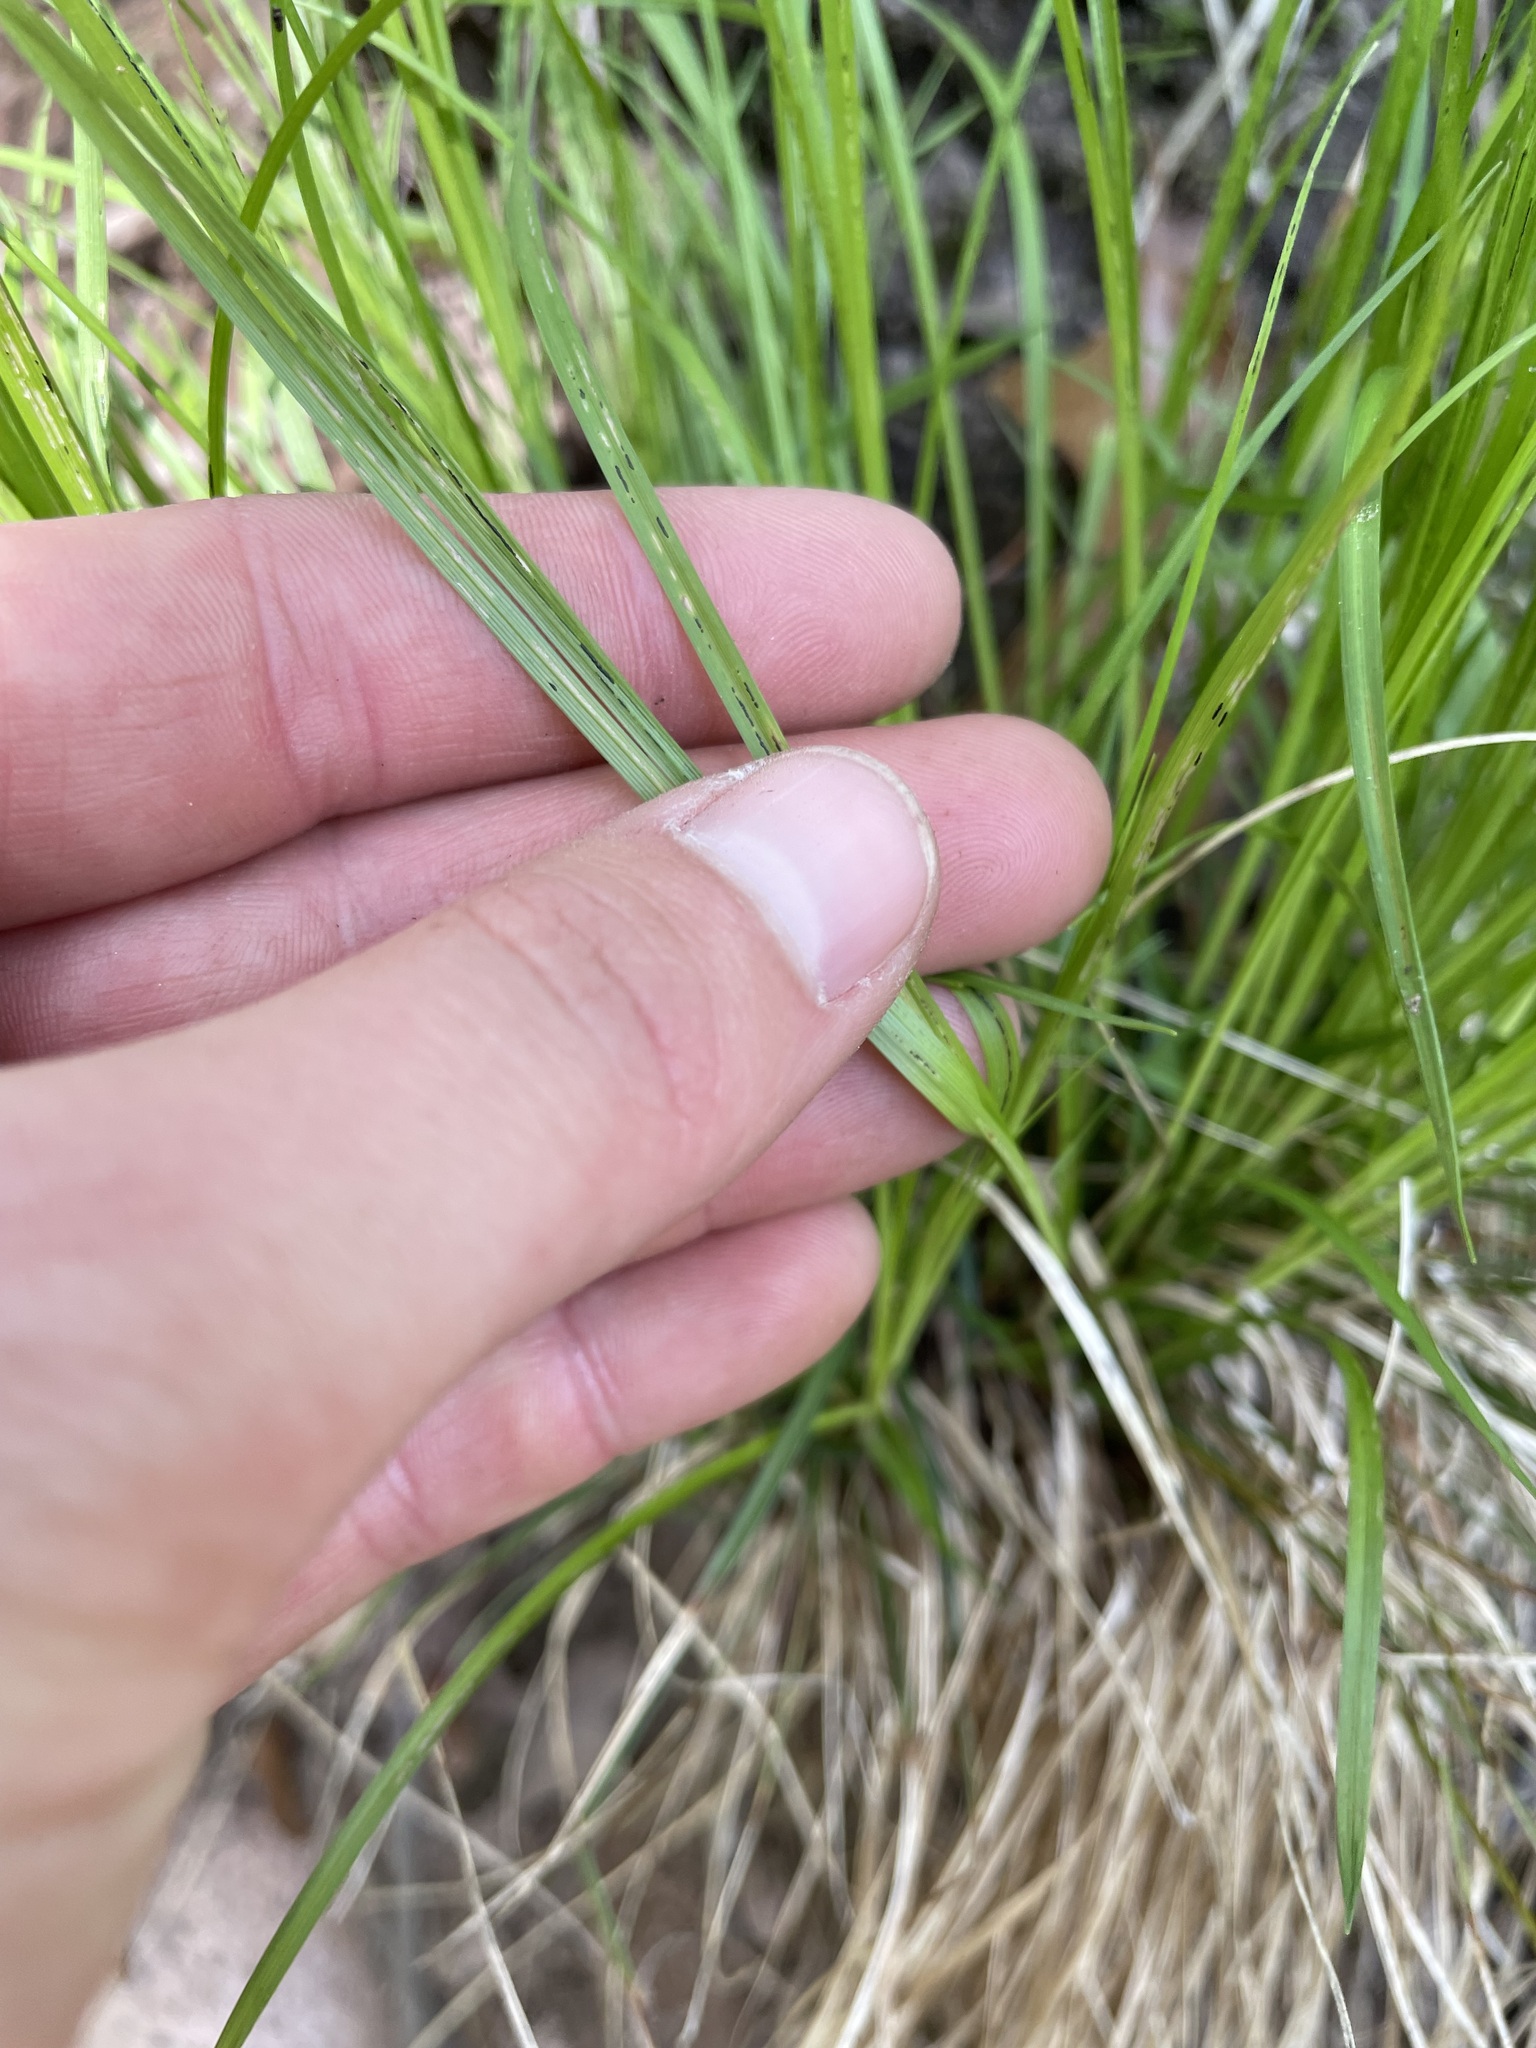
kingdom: Plantae
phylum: Tracheophyta
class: Liliopsida
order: Poales
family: Cyperaceae
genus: Carex
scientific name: Carex pensylvanica
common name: Common oak sedge
